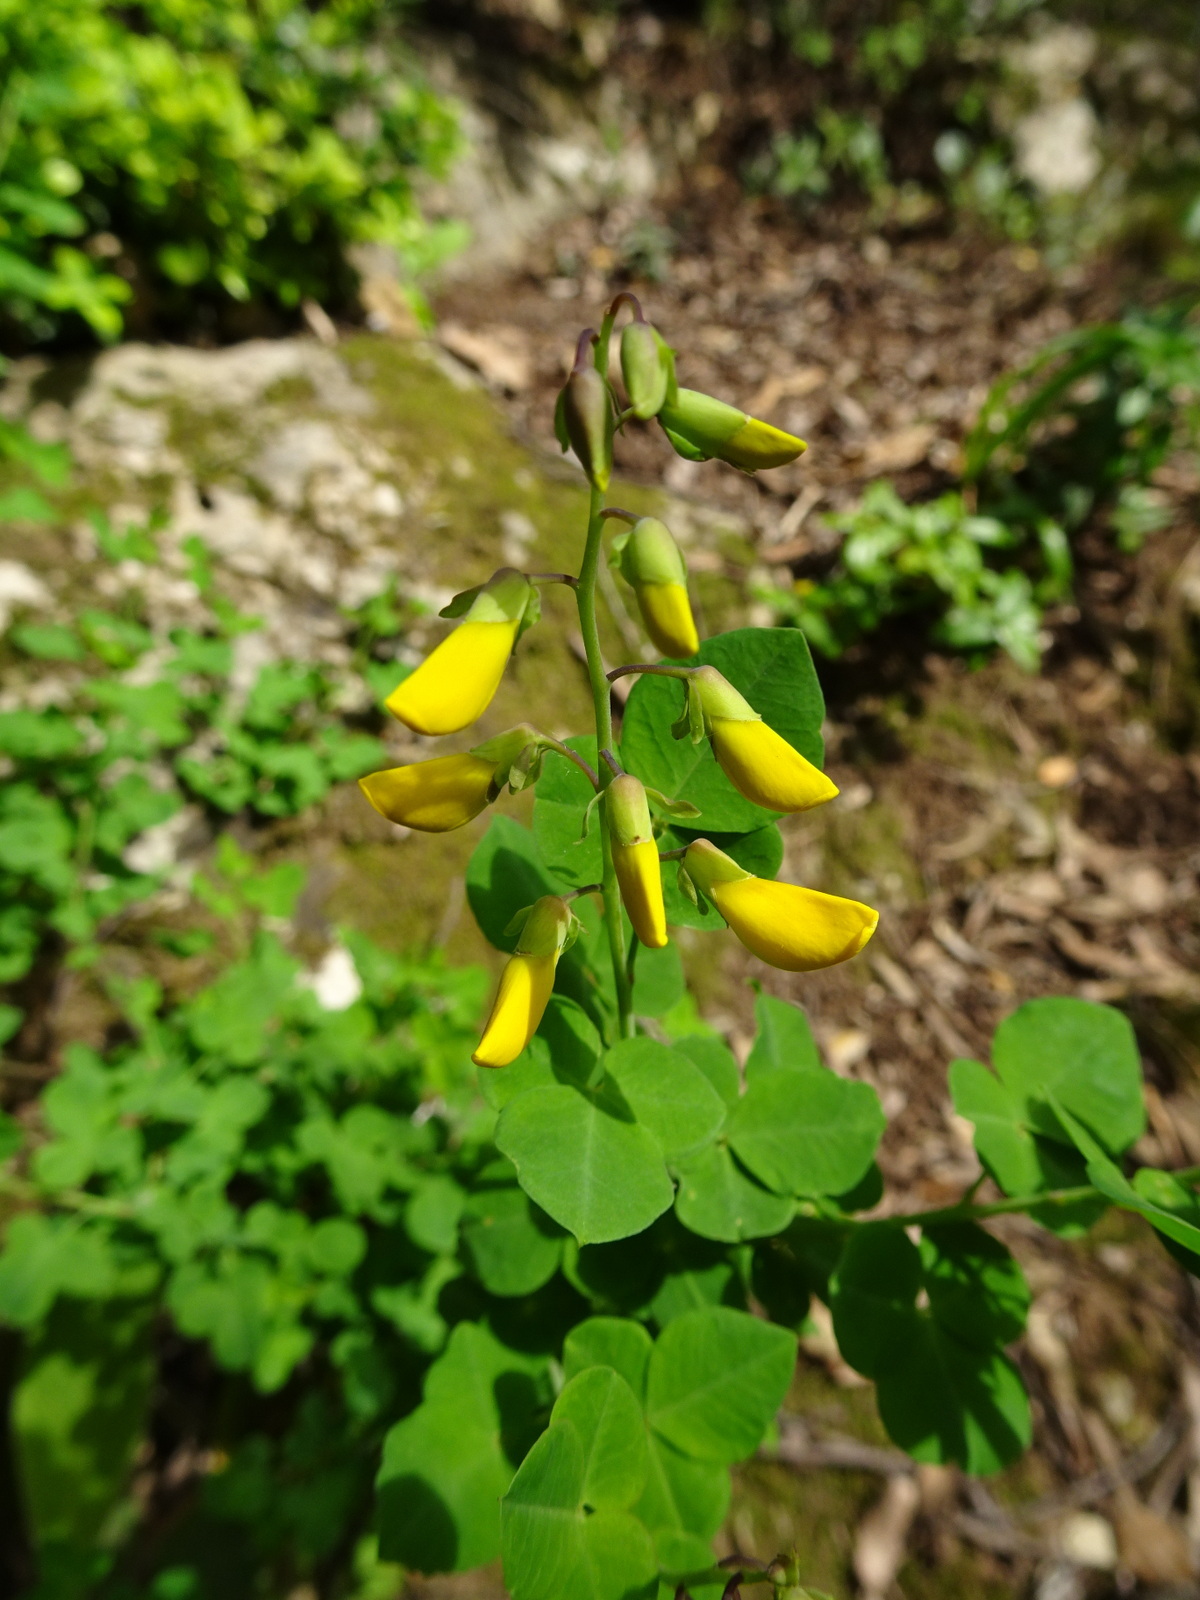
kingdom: Plantae
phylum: Tracheophyta
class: Magnoliopsida
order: Fabales
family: Fabaceae
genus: Cytisophyllum
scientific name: Cytisophyllum sessilifolium
